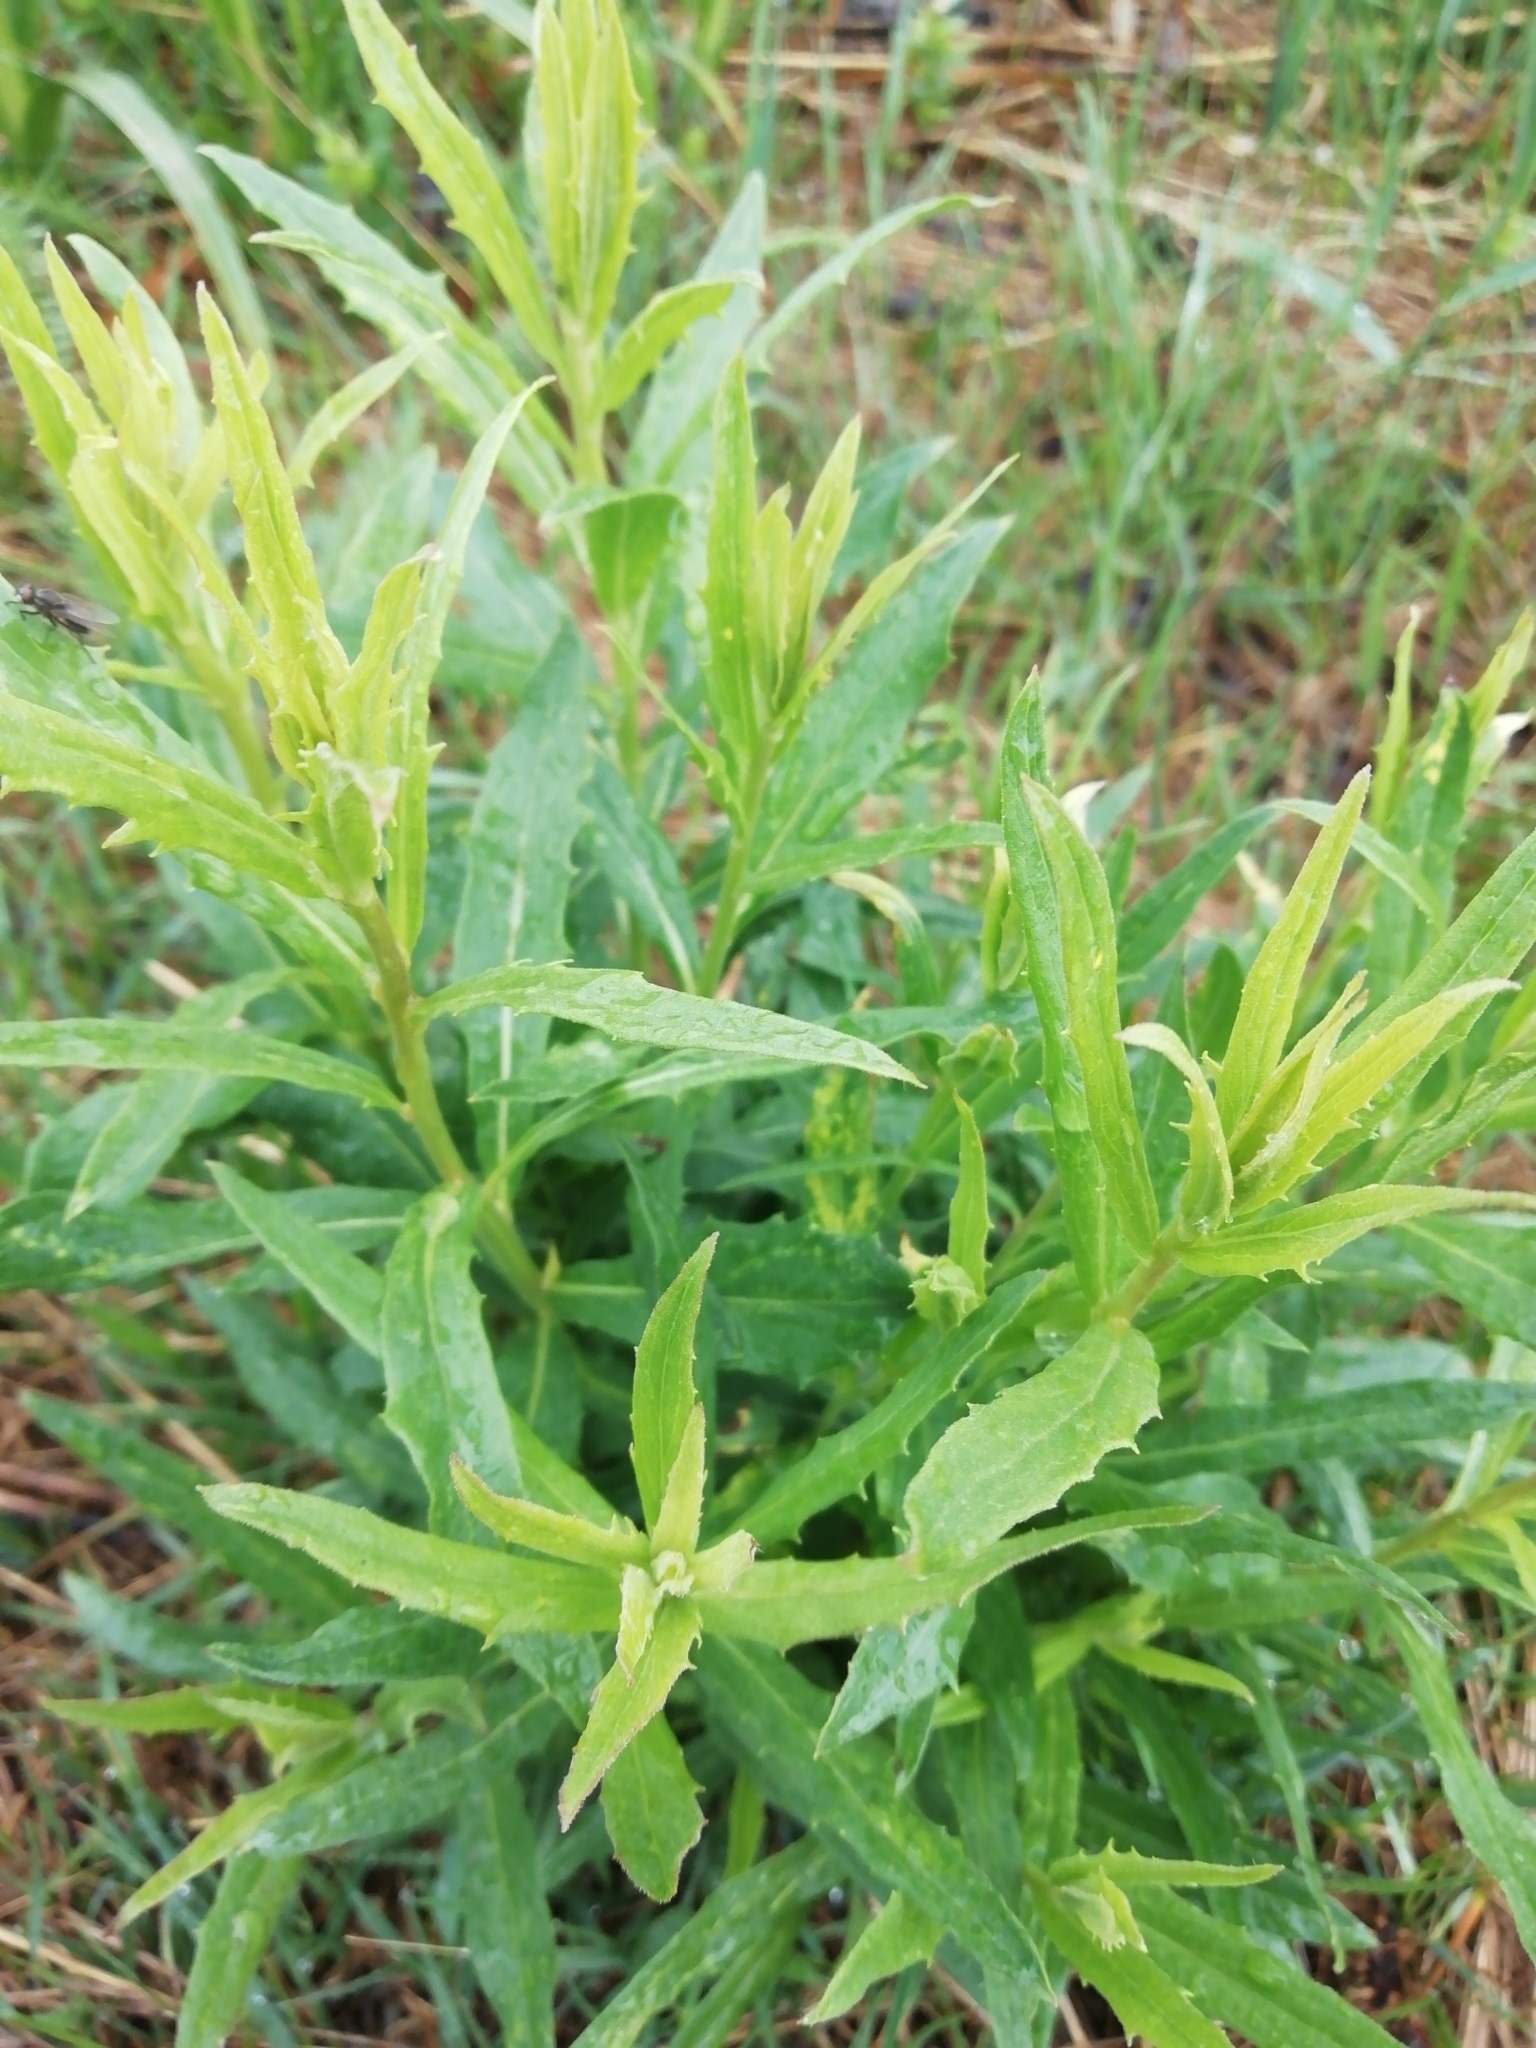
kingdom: Plantae
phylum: Tracheophyta
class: Magnoliopsida
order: Asterales
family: Asteraceae
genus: Hieracium
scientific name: Hieracium umbellatum
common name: Northern hawkweed
